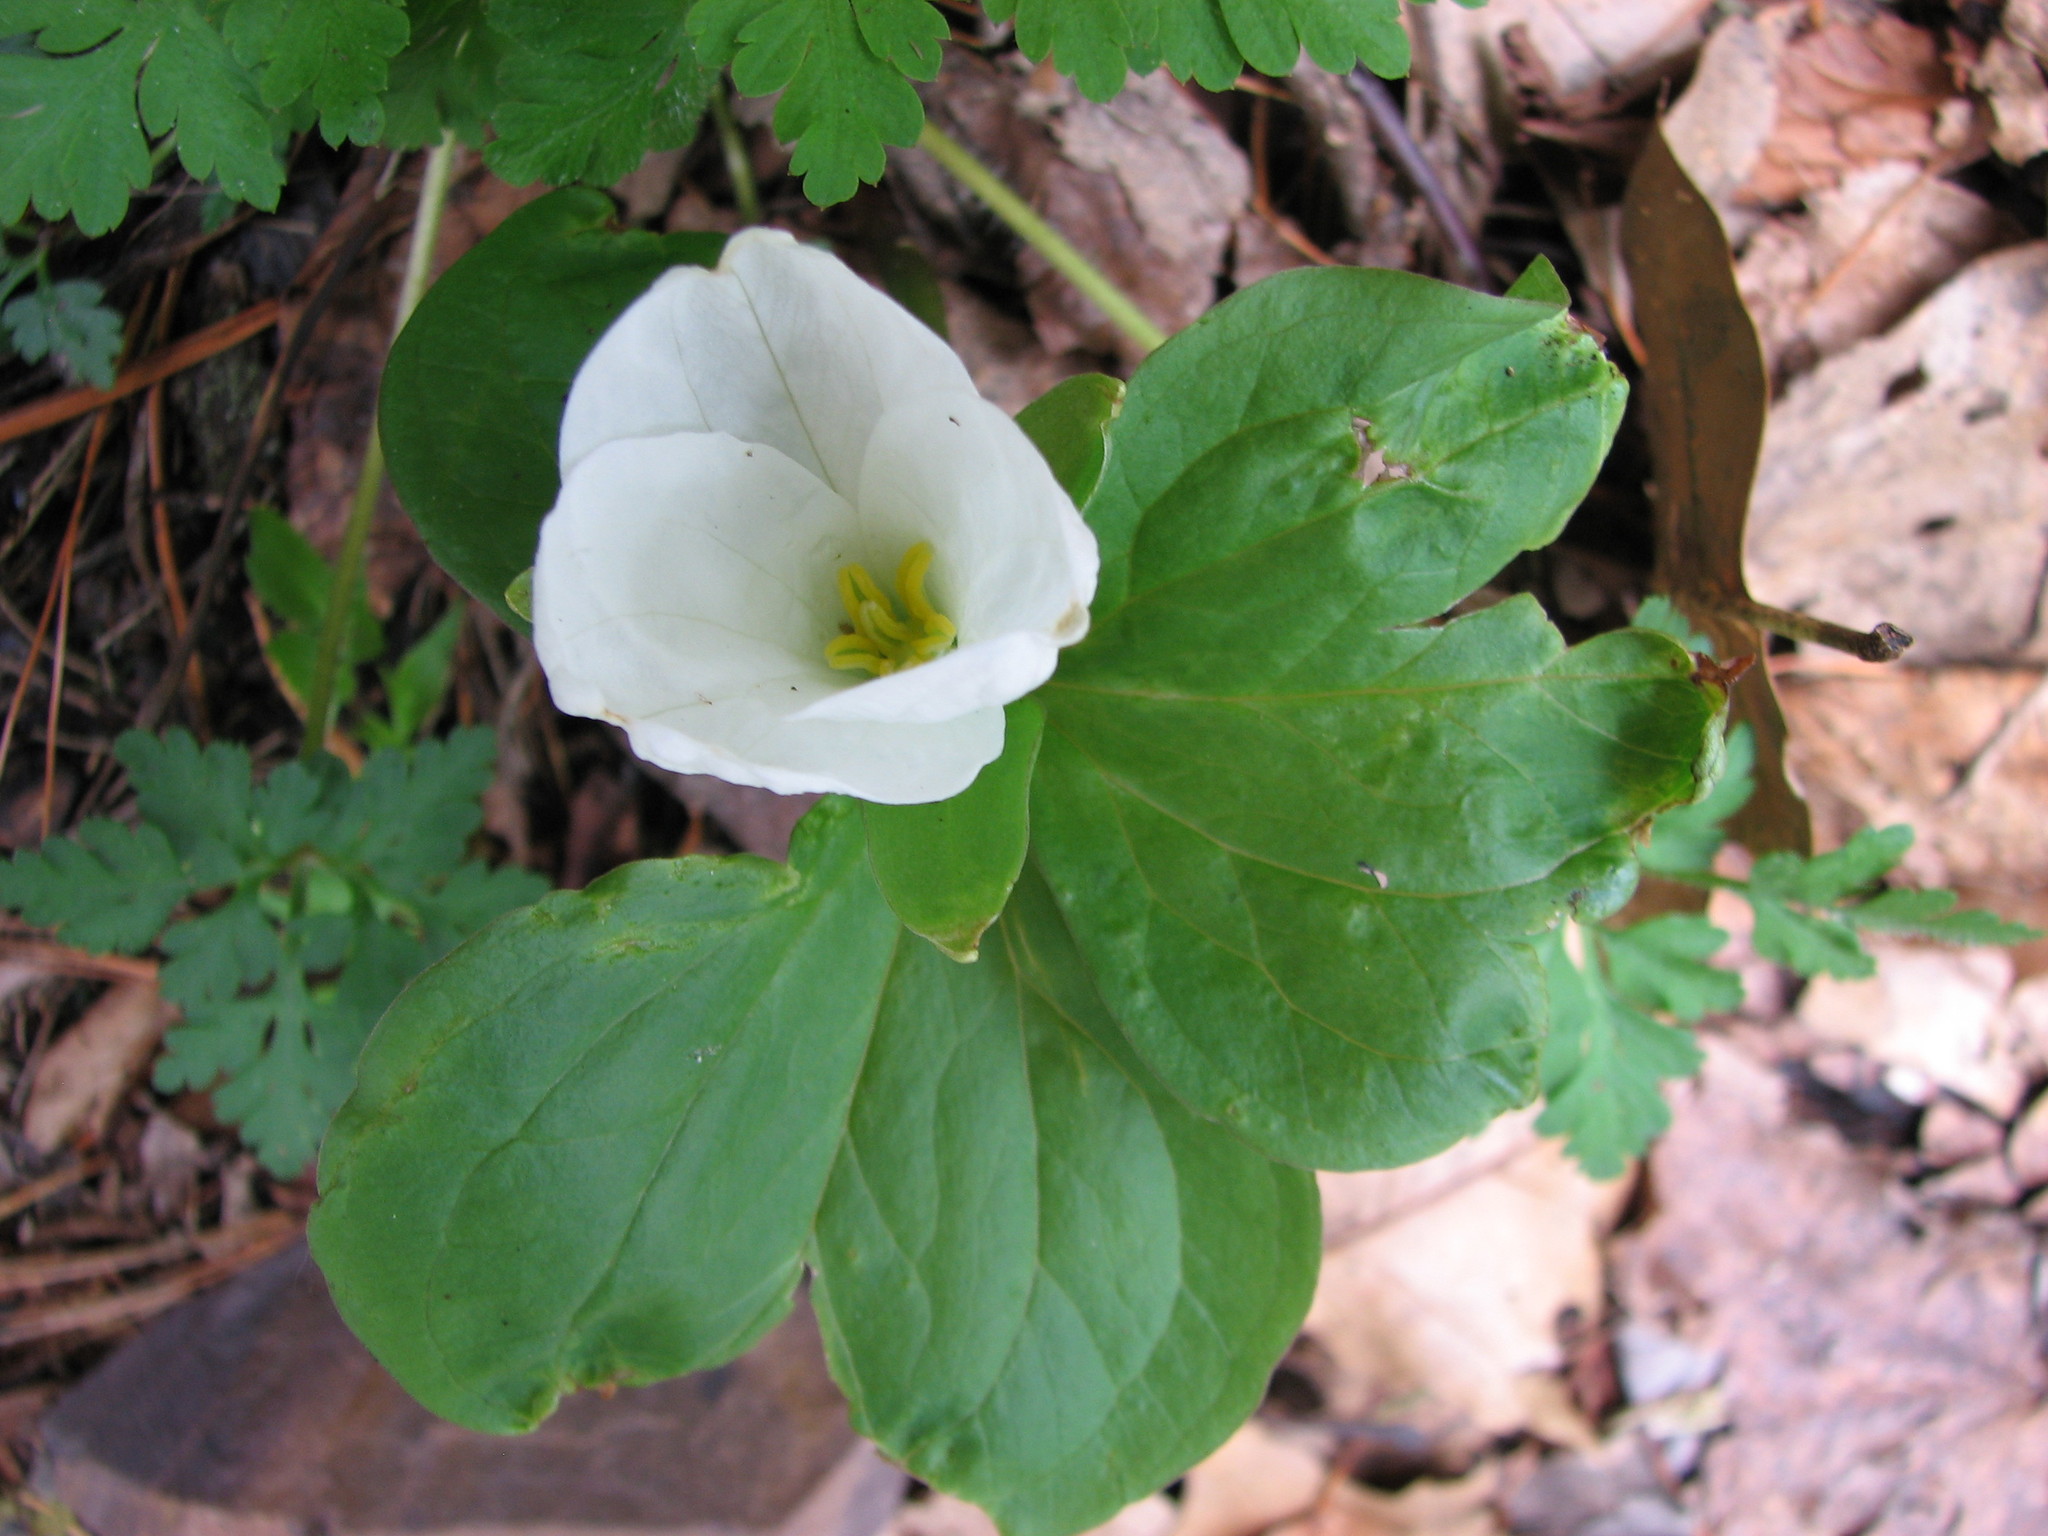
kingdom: Plantae
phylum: Tracheophyta
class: Liliopsida
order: Liliales
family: Melanthiaceae
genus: Trillium
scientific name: Trillium grandiflorum
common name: Great white trillium
